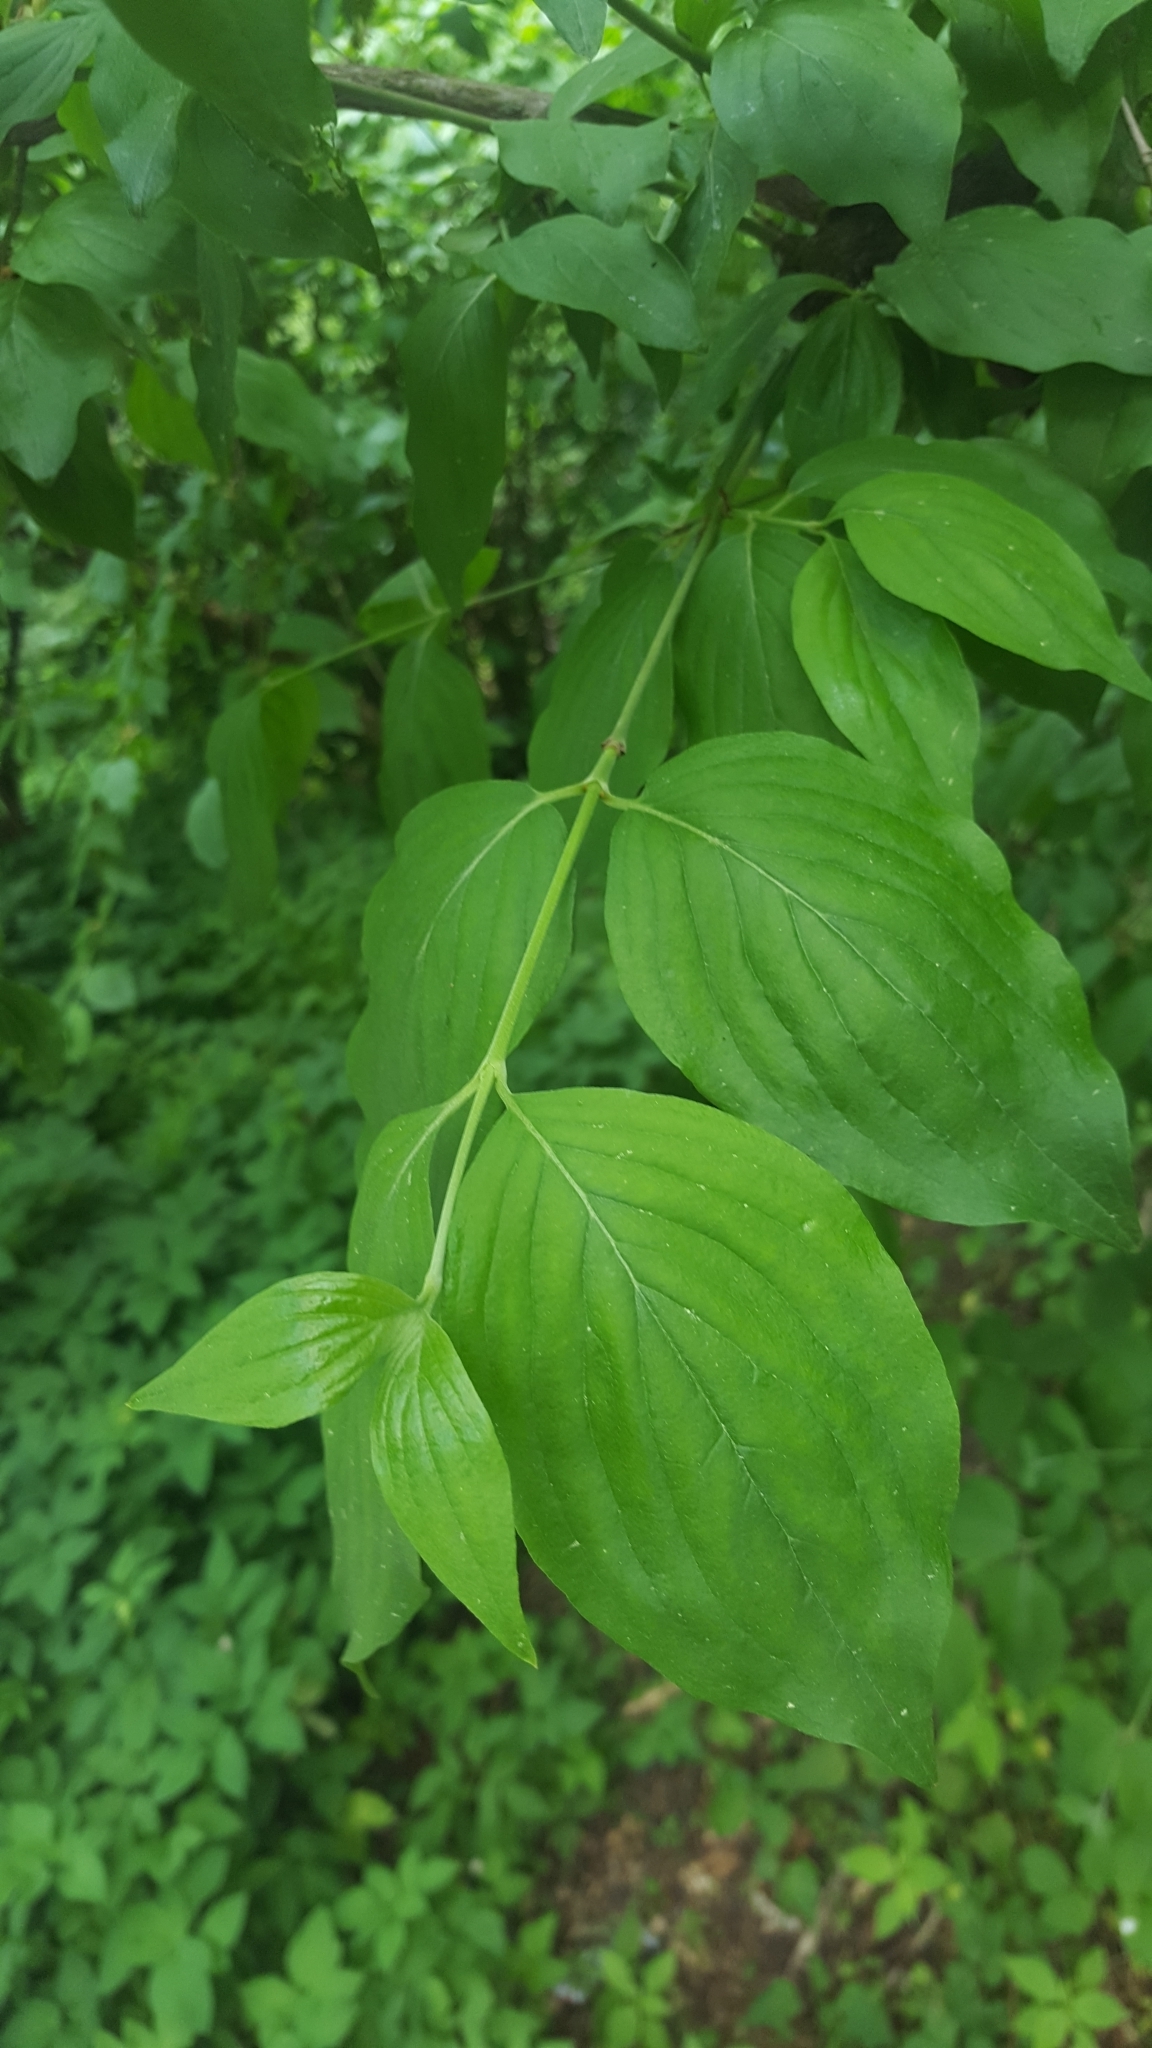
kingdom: Plantae
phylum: Tracheophyta
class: Magnoliopsida
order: Cornales
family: Cornaceae
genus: Cornus
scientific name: Cornus mas
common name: Cornelian-cherry
